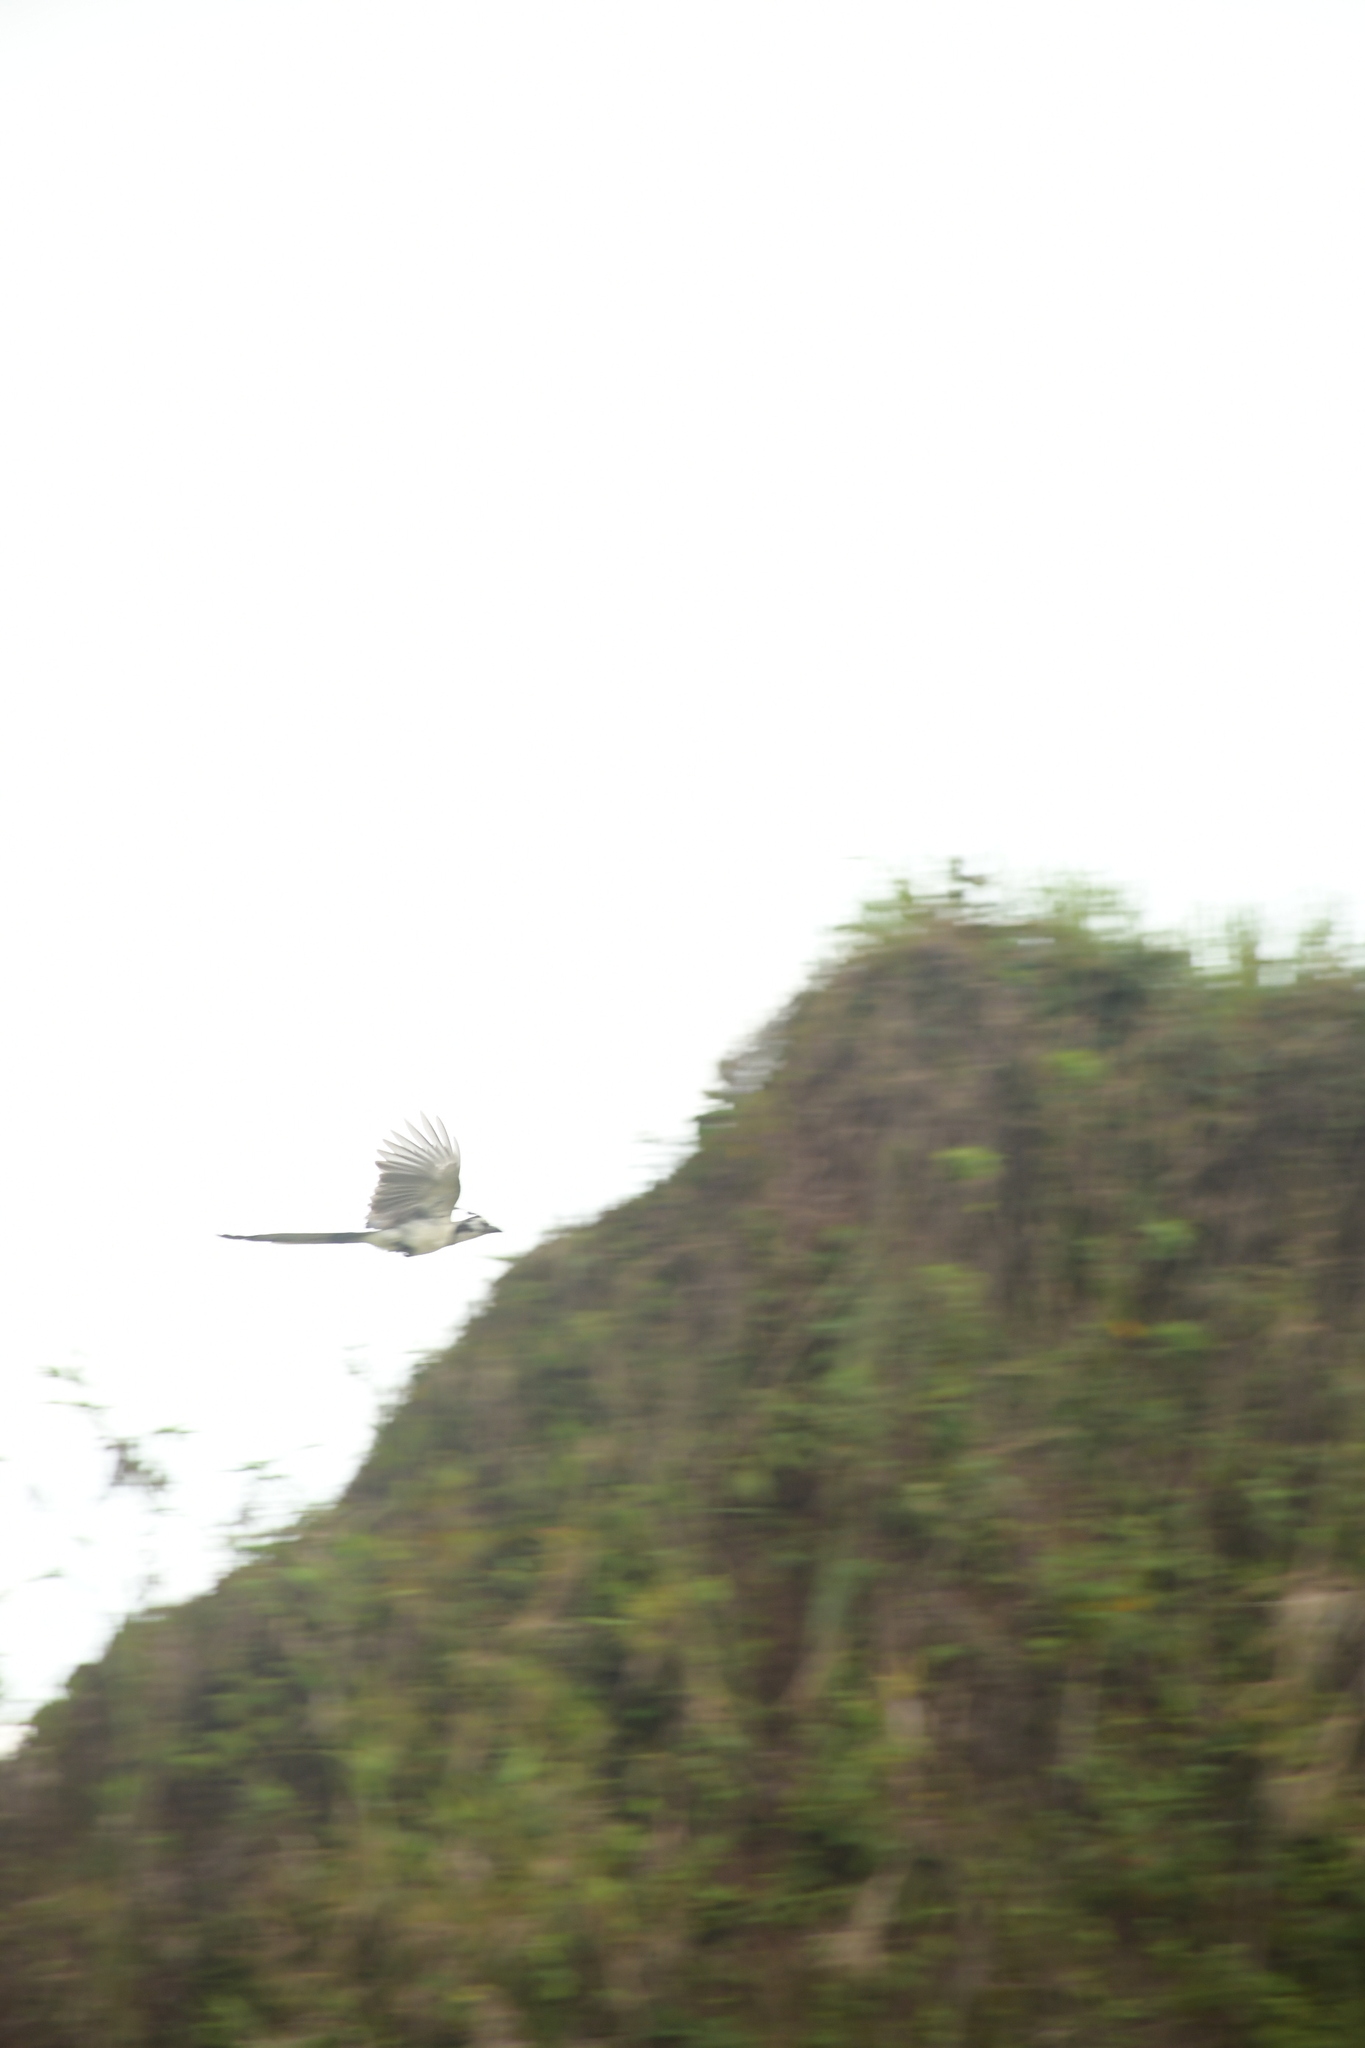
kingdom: Animalia
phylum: Chordata
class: Aves
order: Passeriformes
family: Corvidae
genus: Calocitta
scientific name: Calocitta formosa
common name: White-throated magpie-jay
